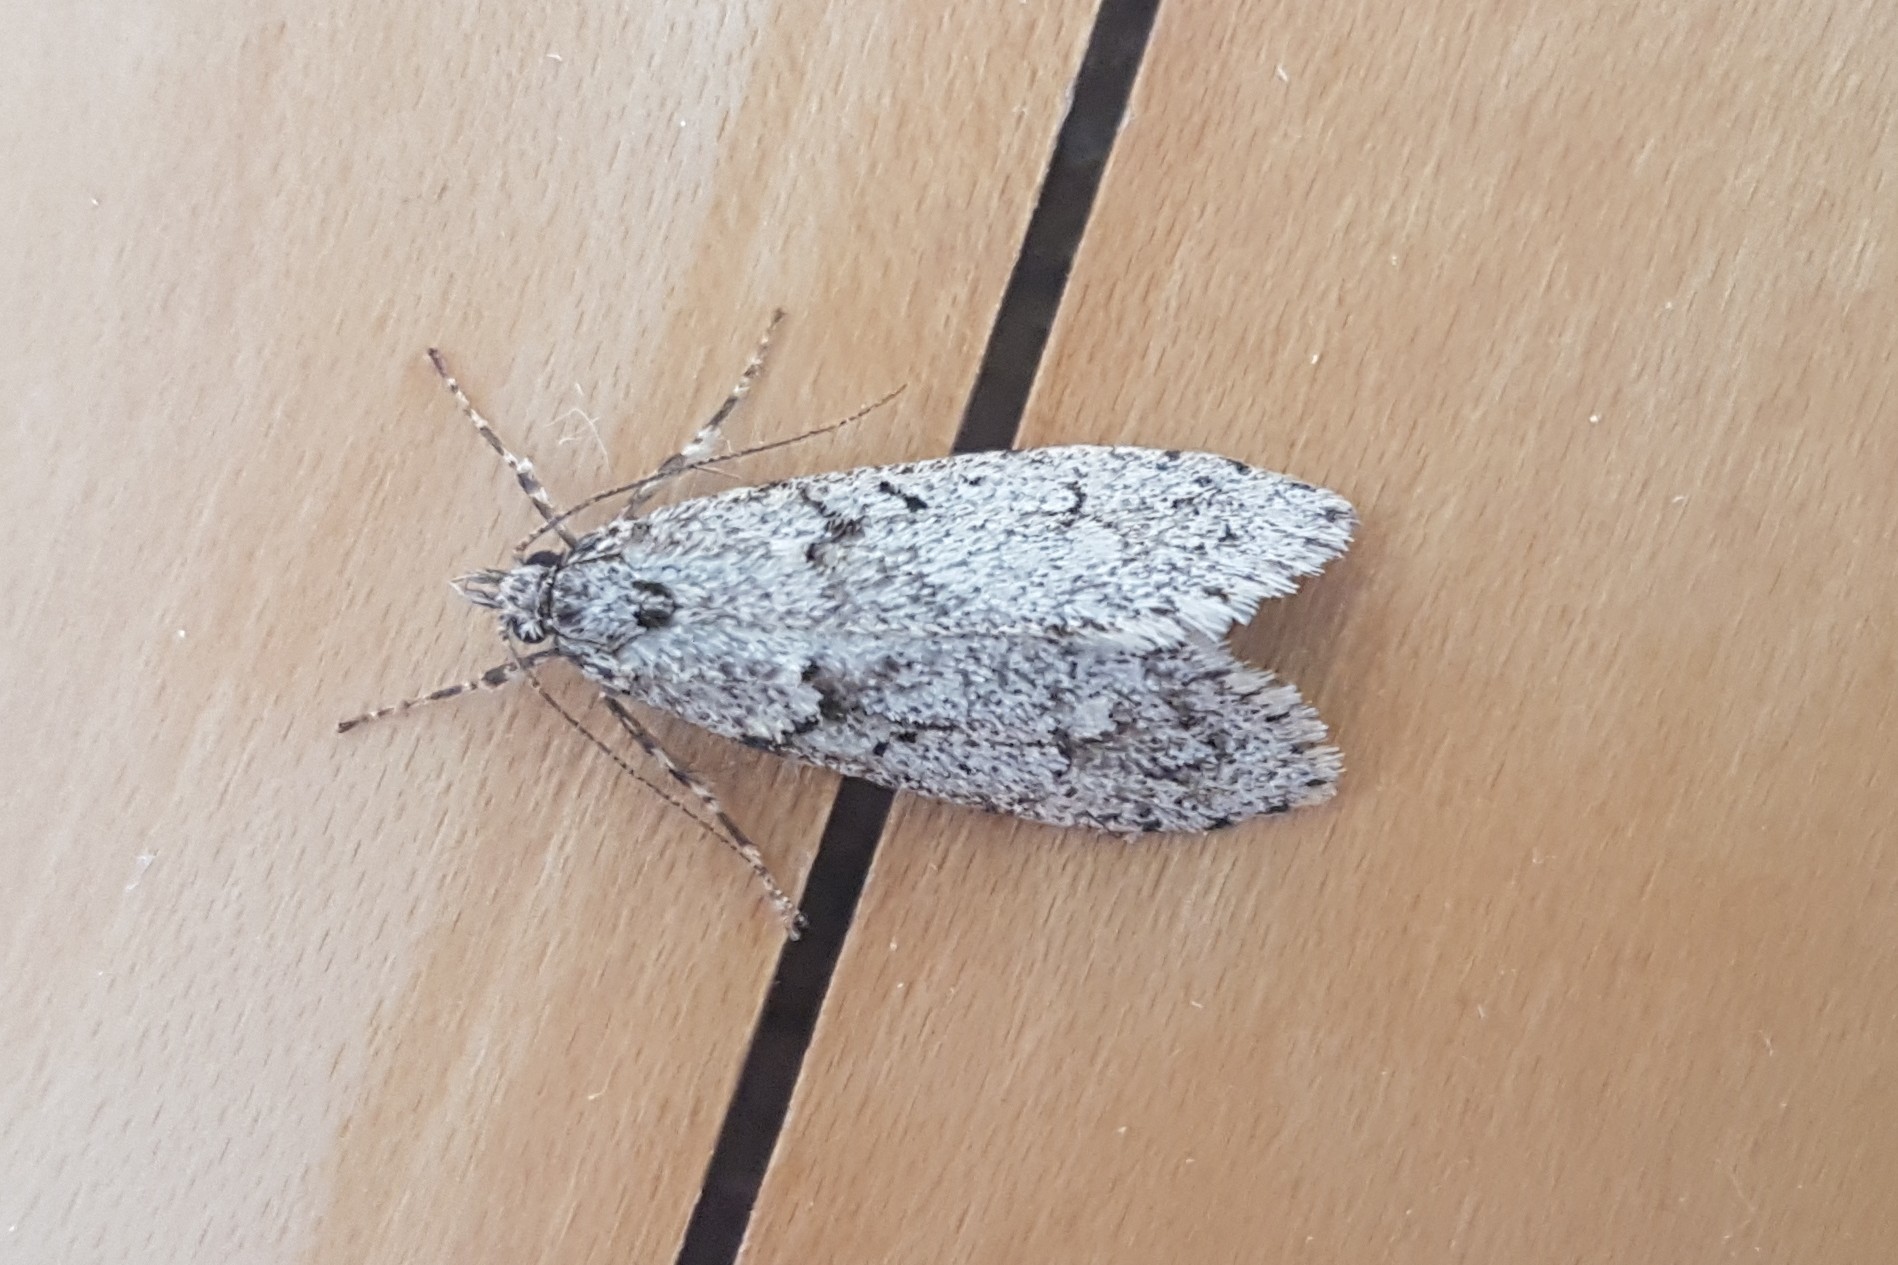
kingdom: Animalia
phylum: Arthropoda
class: Insecta
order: Lepidoptera
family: Lypusidae
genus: Diurnea
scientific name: Diurnea fagella
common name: March tubic
